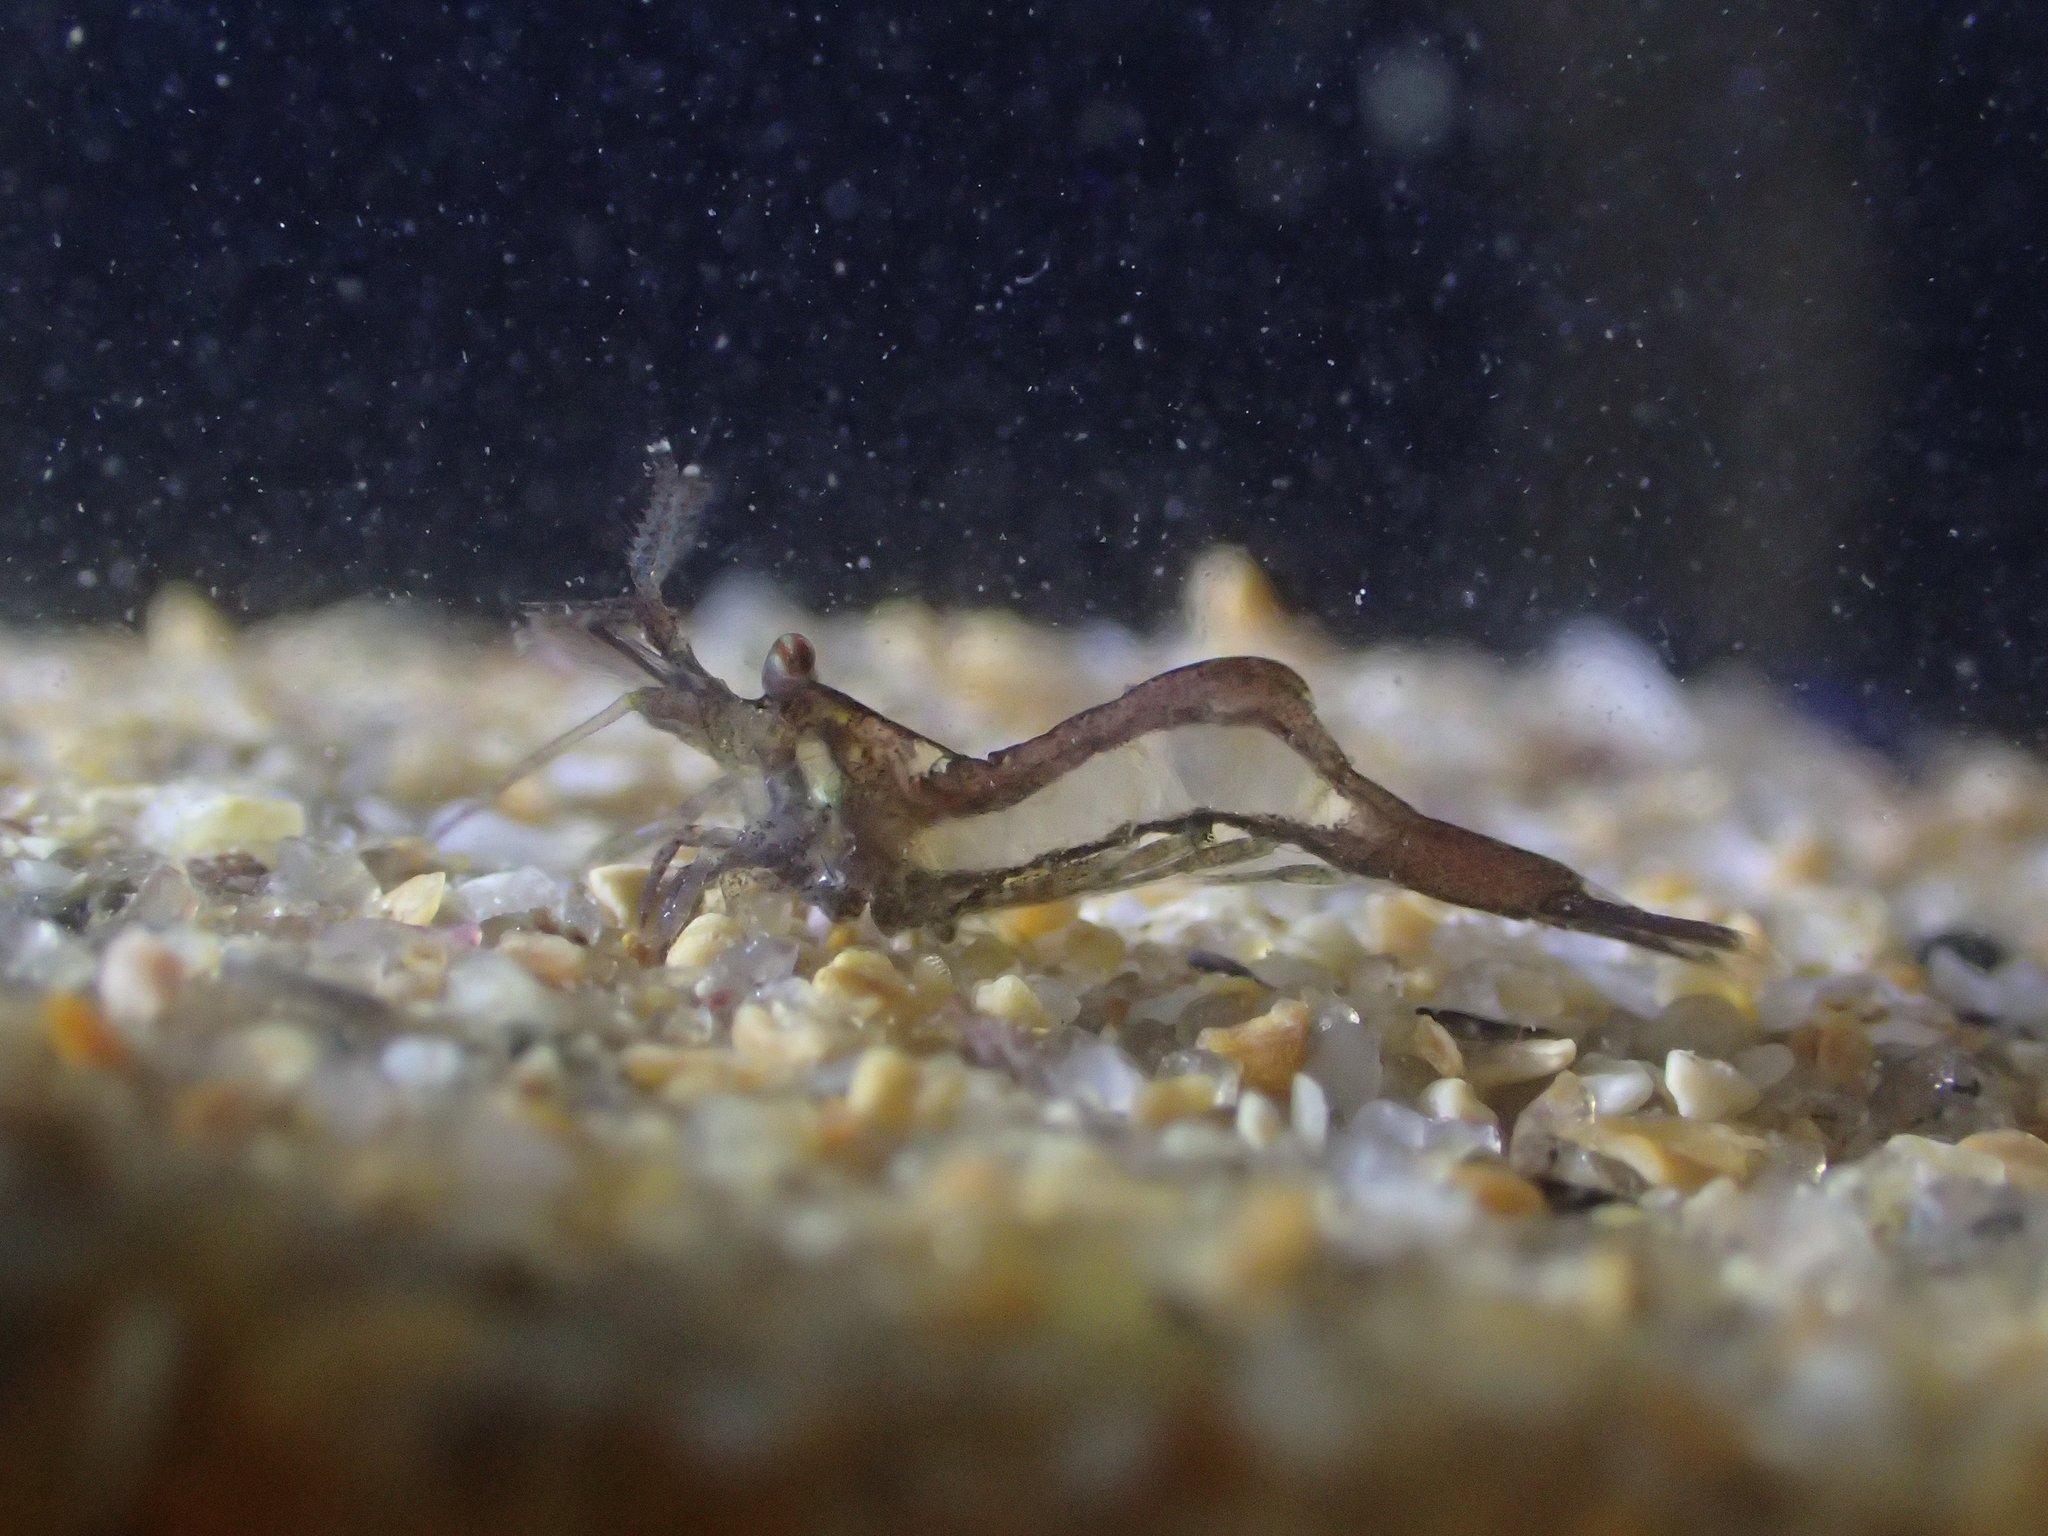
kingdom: Animalia
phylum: Arthropoda
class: Malacostraca
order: Decapoda
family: Hippolytidae
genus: Hippolyte
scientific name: Hippolyte leptocerus
